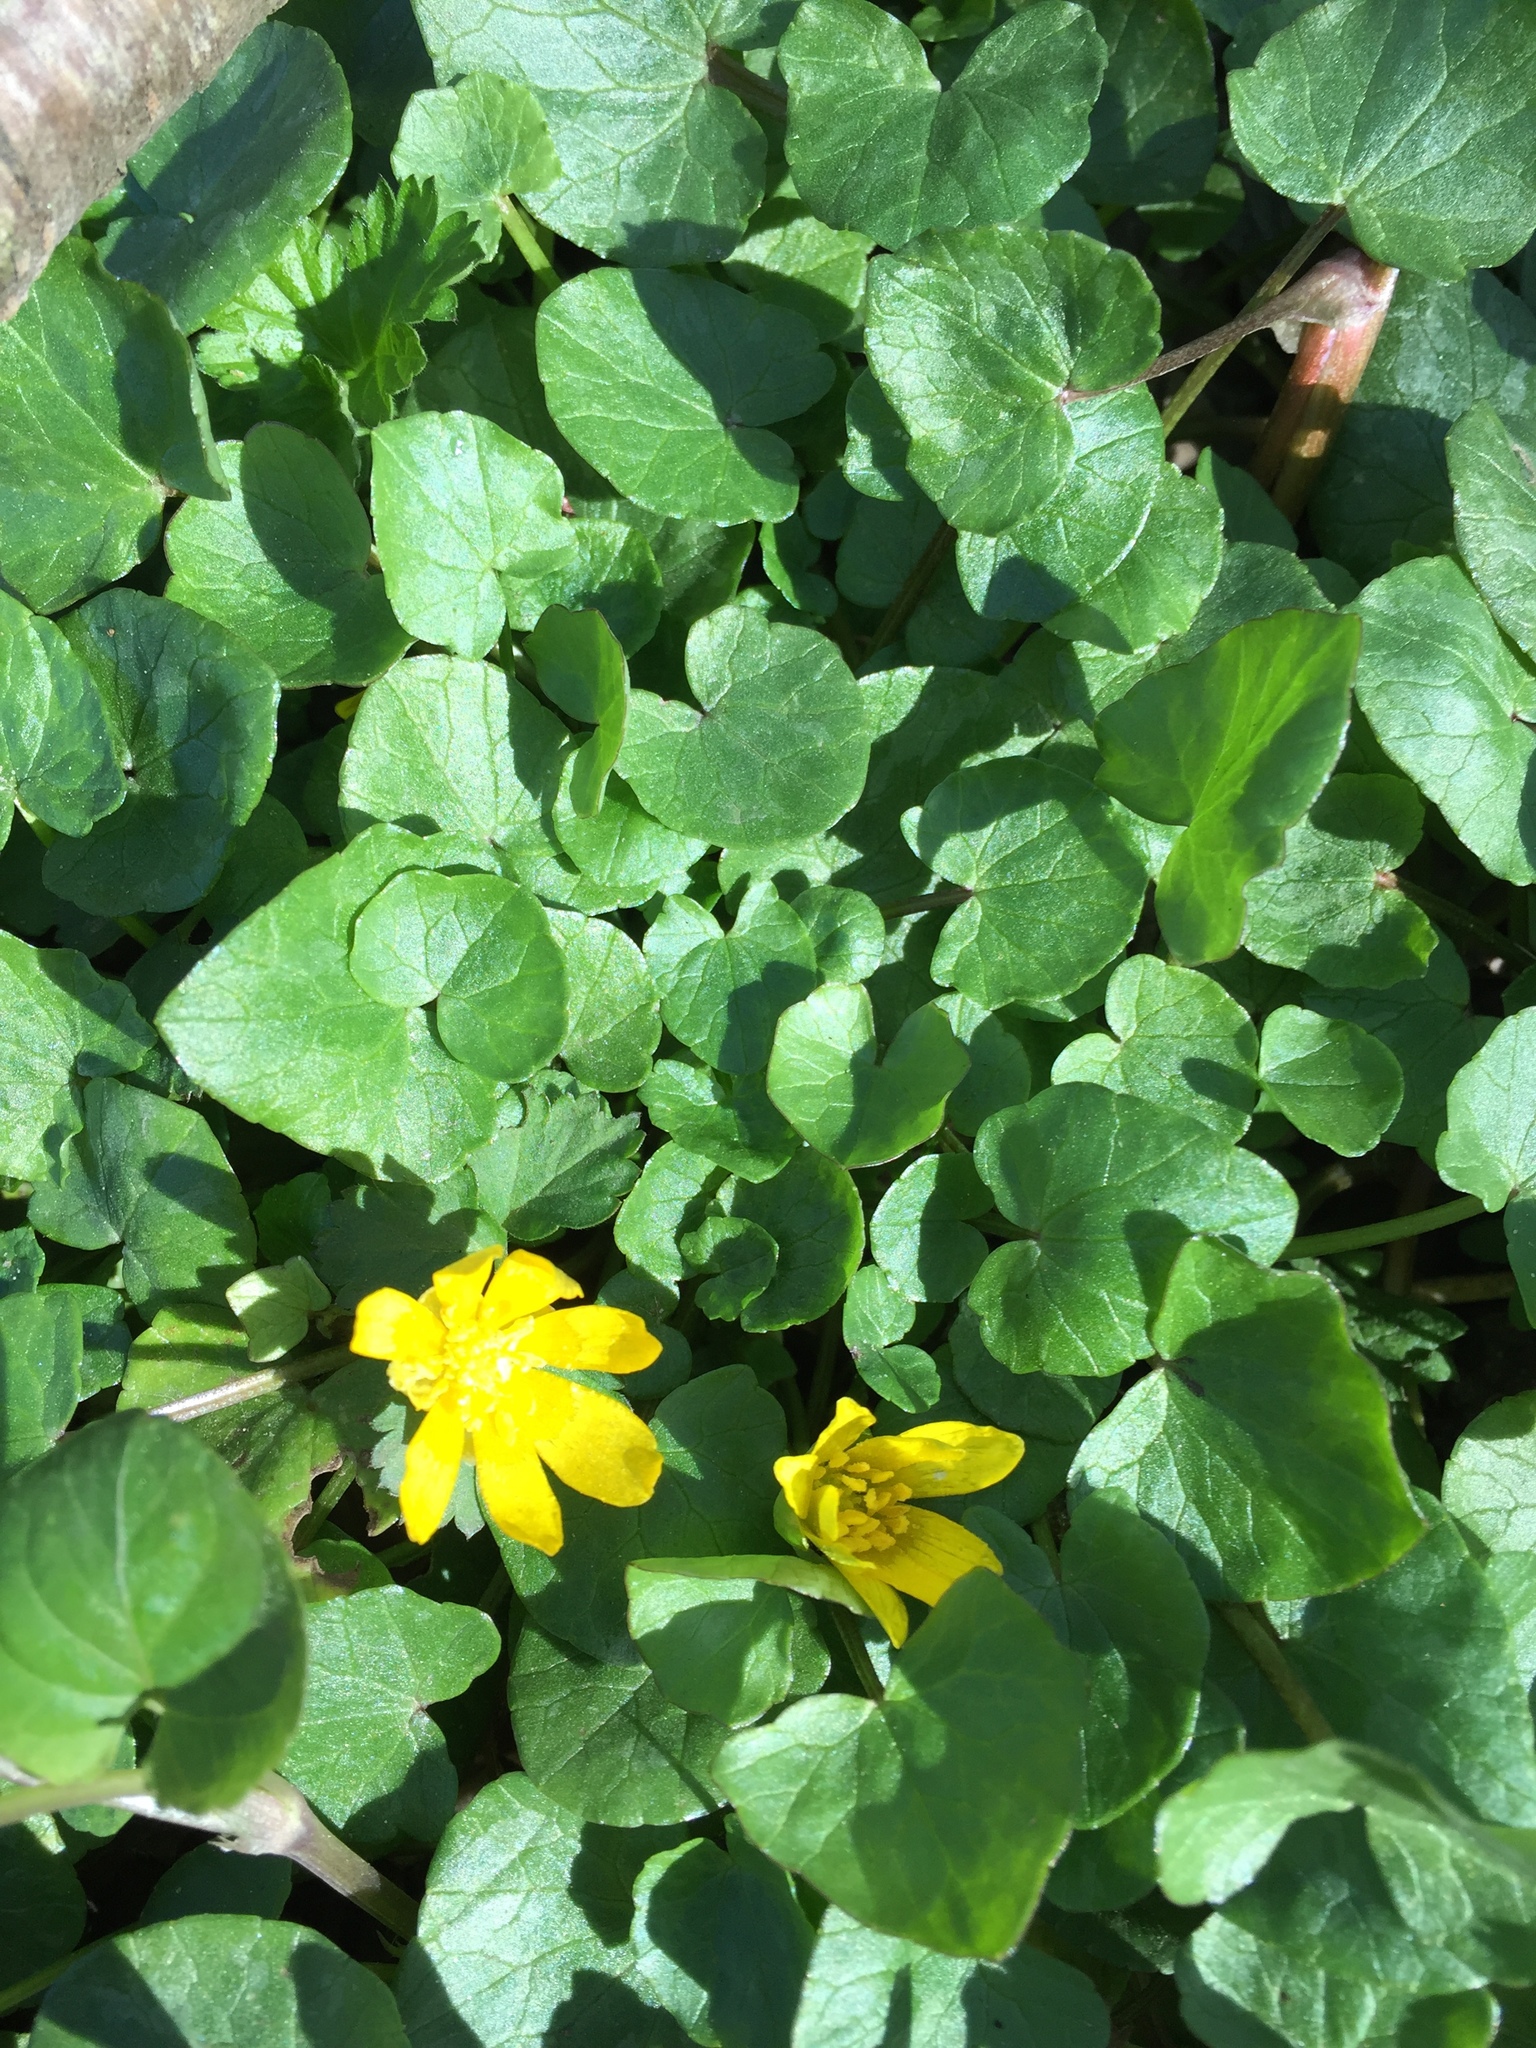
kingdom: Plantae
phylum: Tracheophyta
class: Magnoliopsida
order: Ranunculales
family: Ranunculaceae
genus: Ficaria
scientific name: Ficaria verna
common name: Lesser celandine
